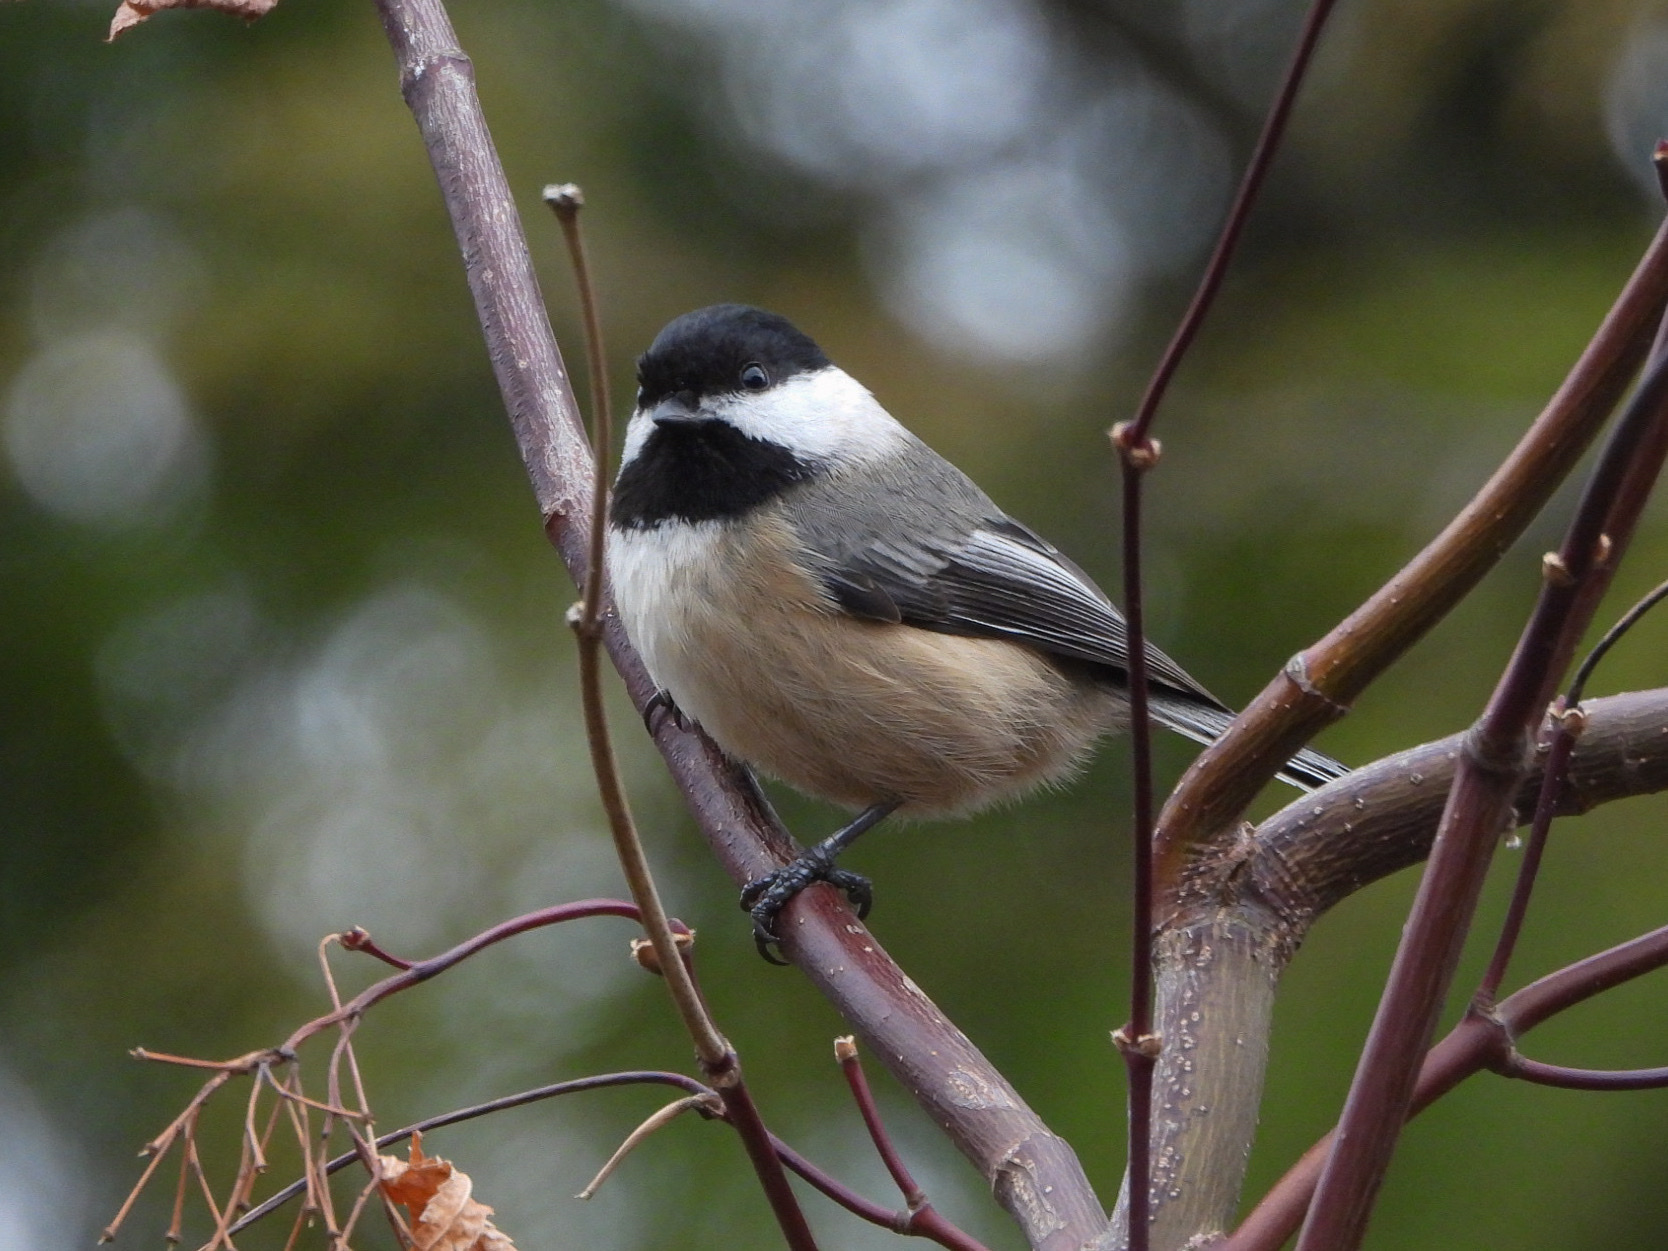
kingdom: Animalia
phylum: Chordata
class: Aves
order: Passeriformes
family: Paridae
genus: Poecile
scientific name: Poecile atricapillus
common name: Black-capped chickadee
